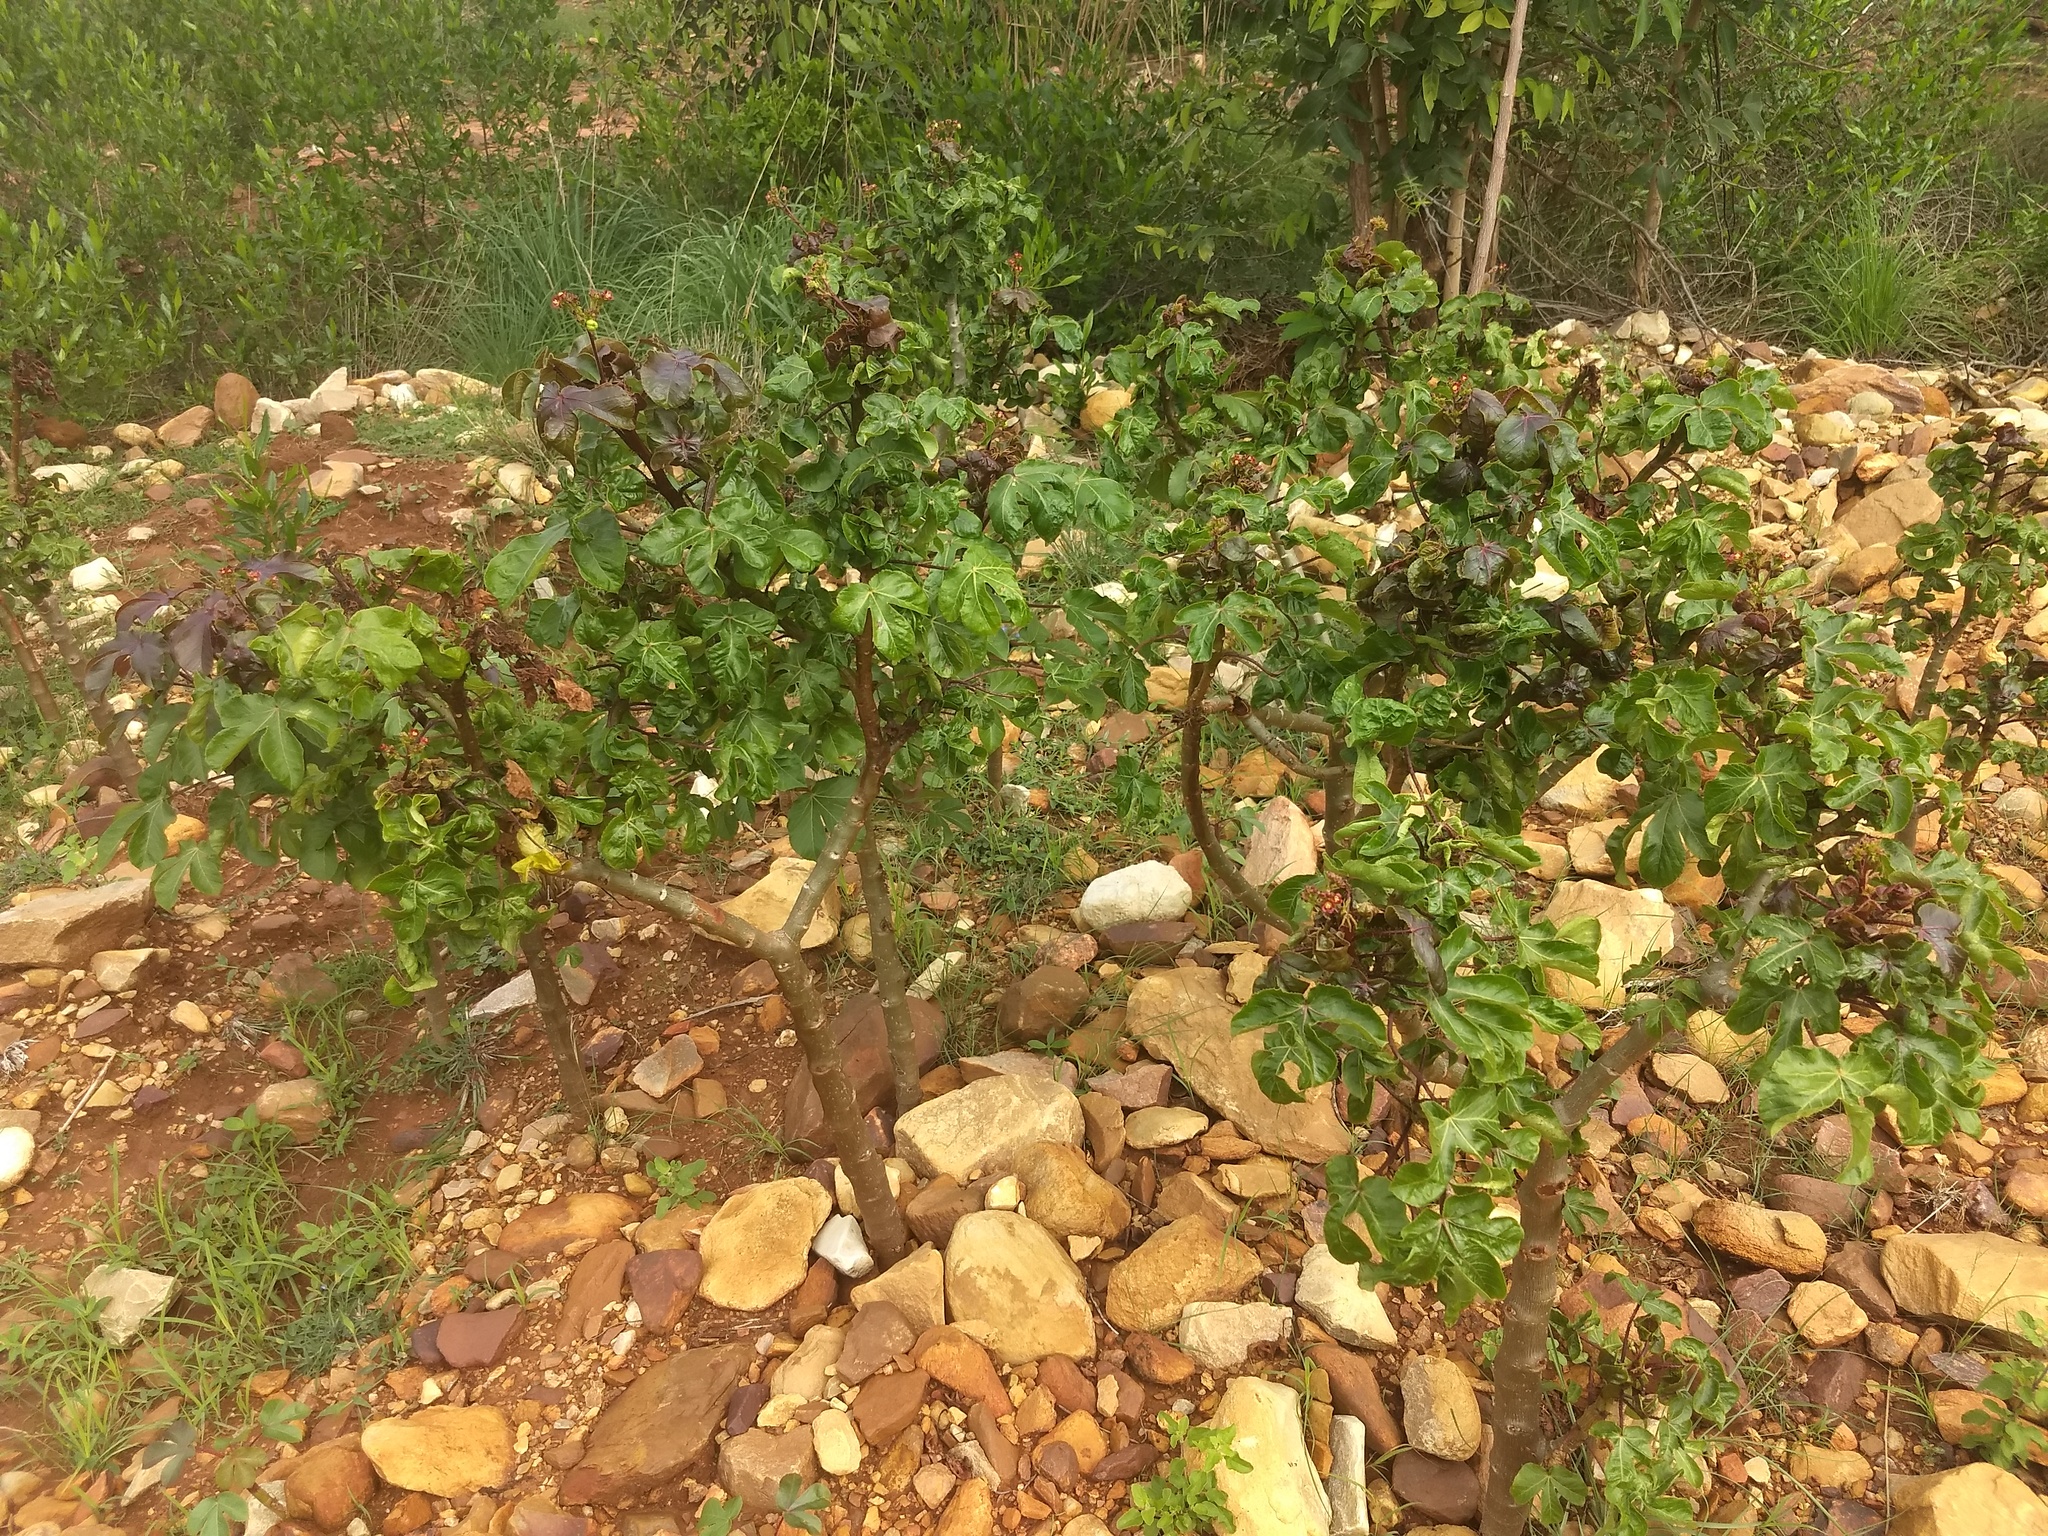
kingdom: Plantae
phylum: Tracheophyta
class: Magnoliopsida
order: Malpighiales
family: Euphorbiaceae
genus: Jatropha
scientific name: Jatropha gossypiifolia
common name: Bellyache bush
